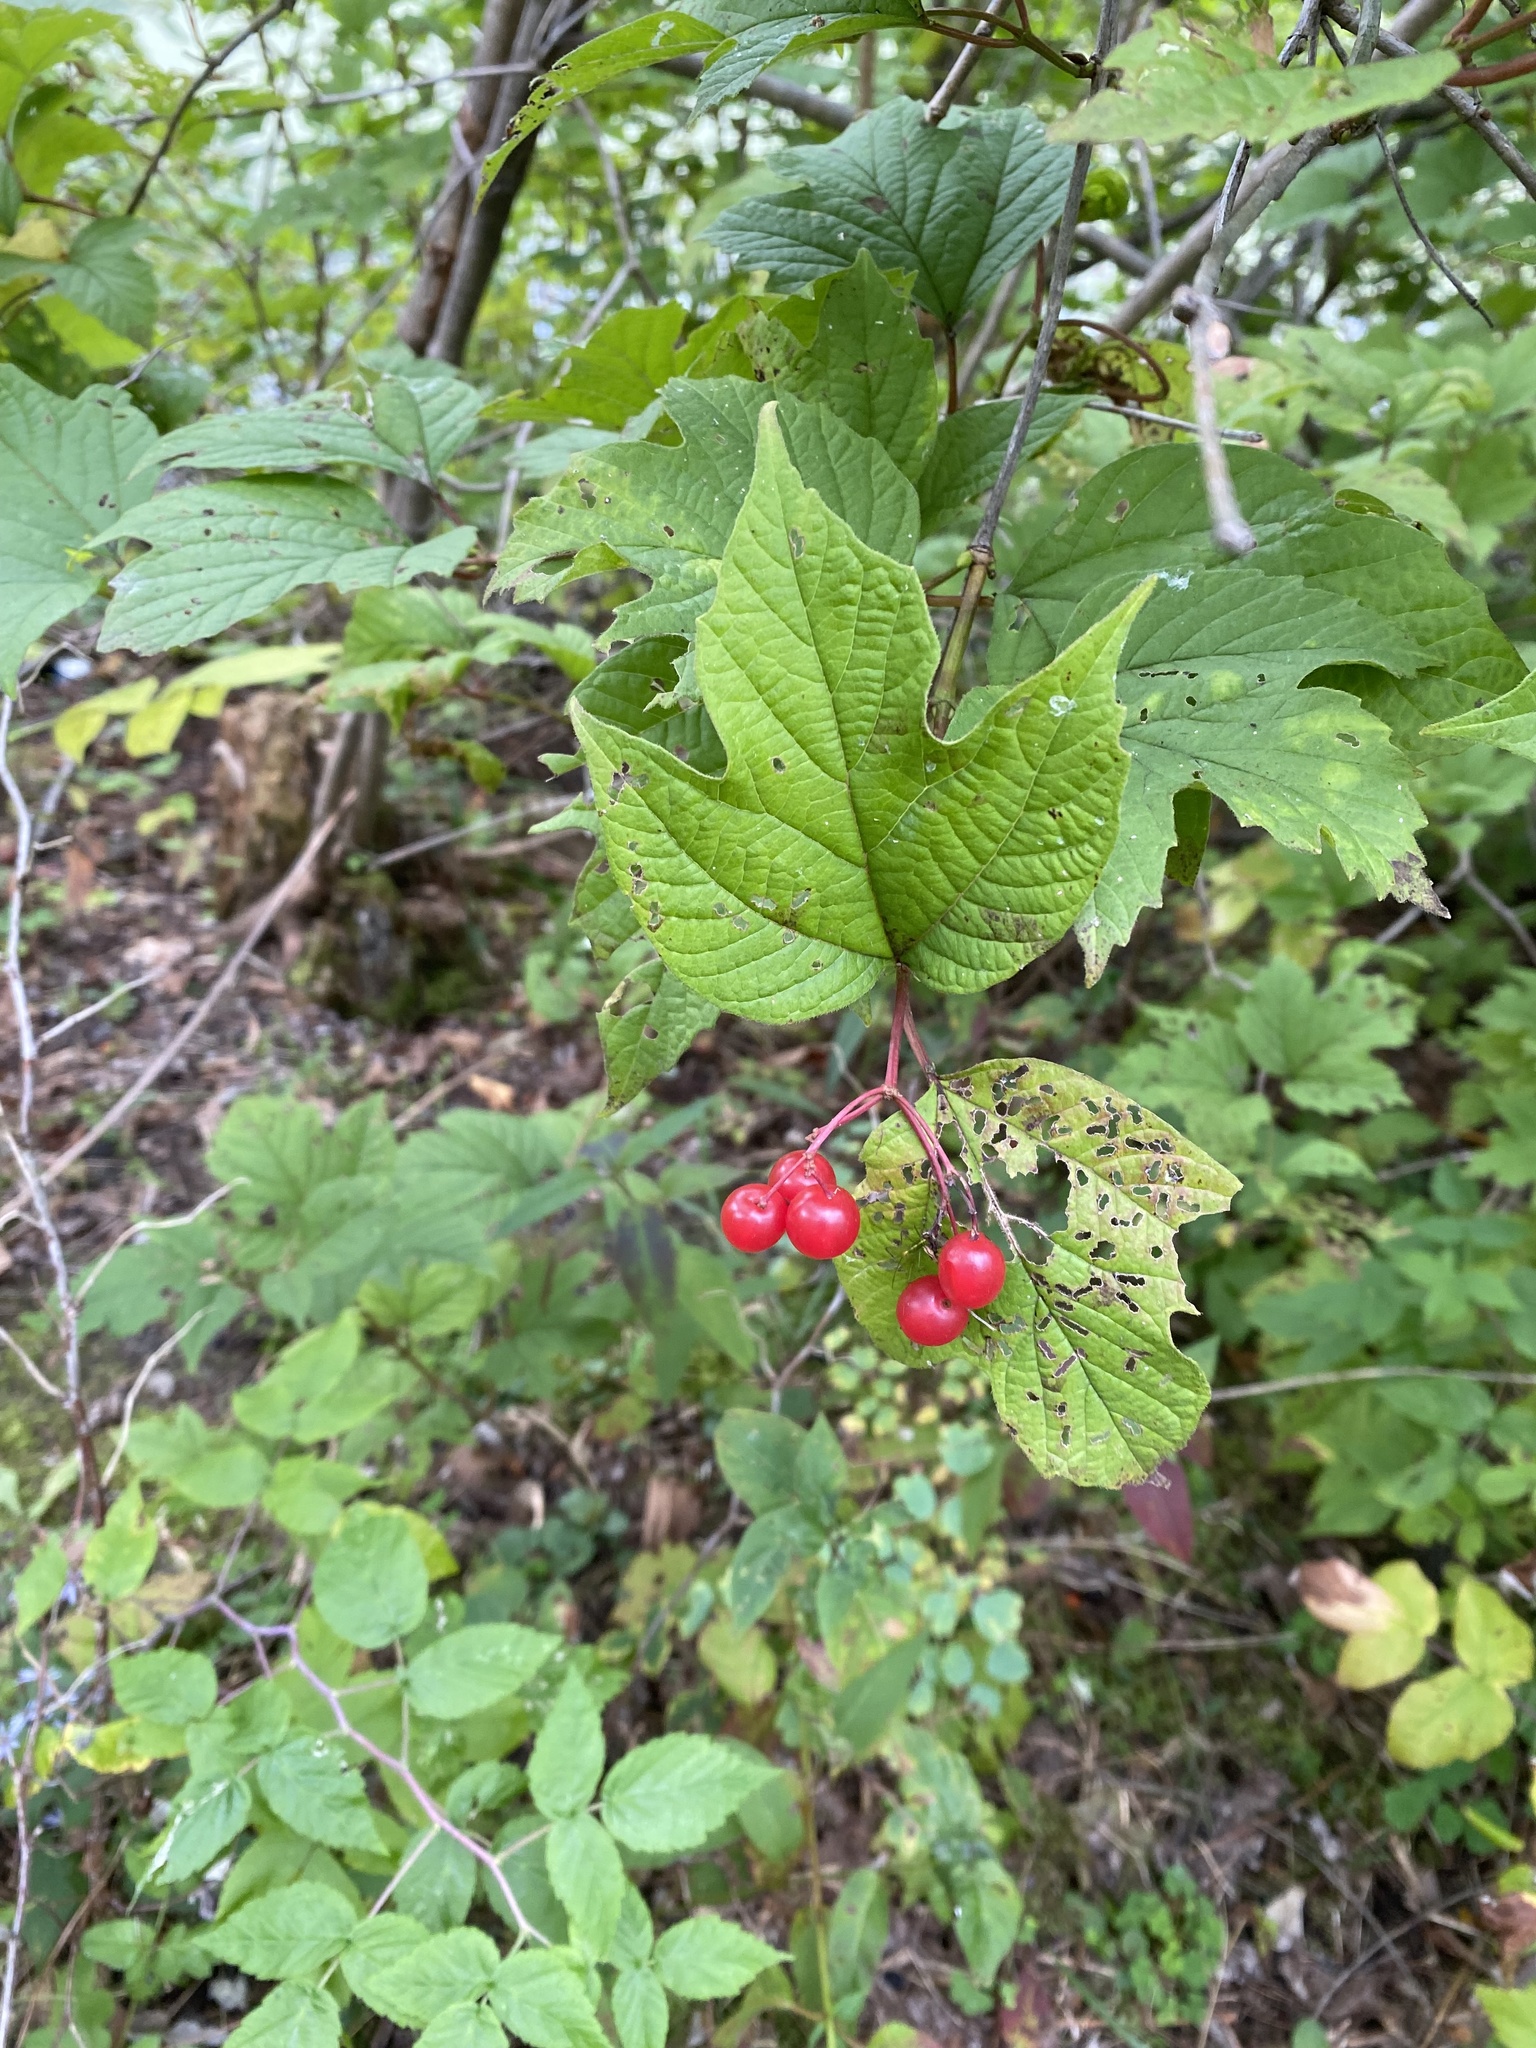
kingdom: Plantae
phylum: Tracheophyta
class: Magnoliopsida
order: Dipsacales
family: Viburnaceae
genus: Viburnum
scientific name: Viburnum opulus
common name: Guelder-rose
